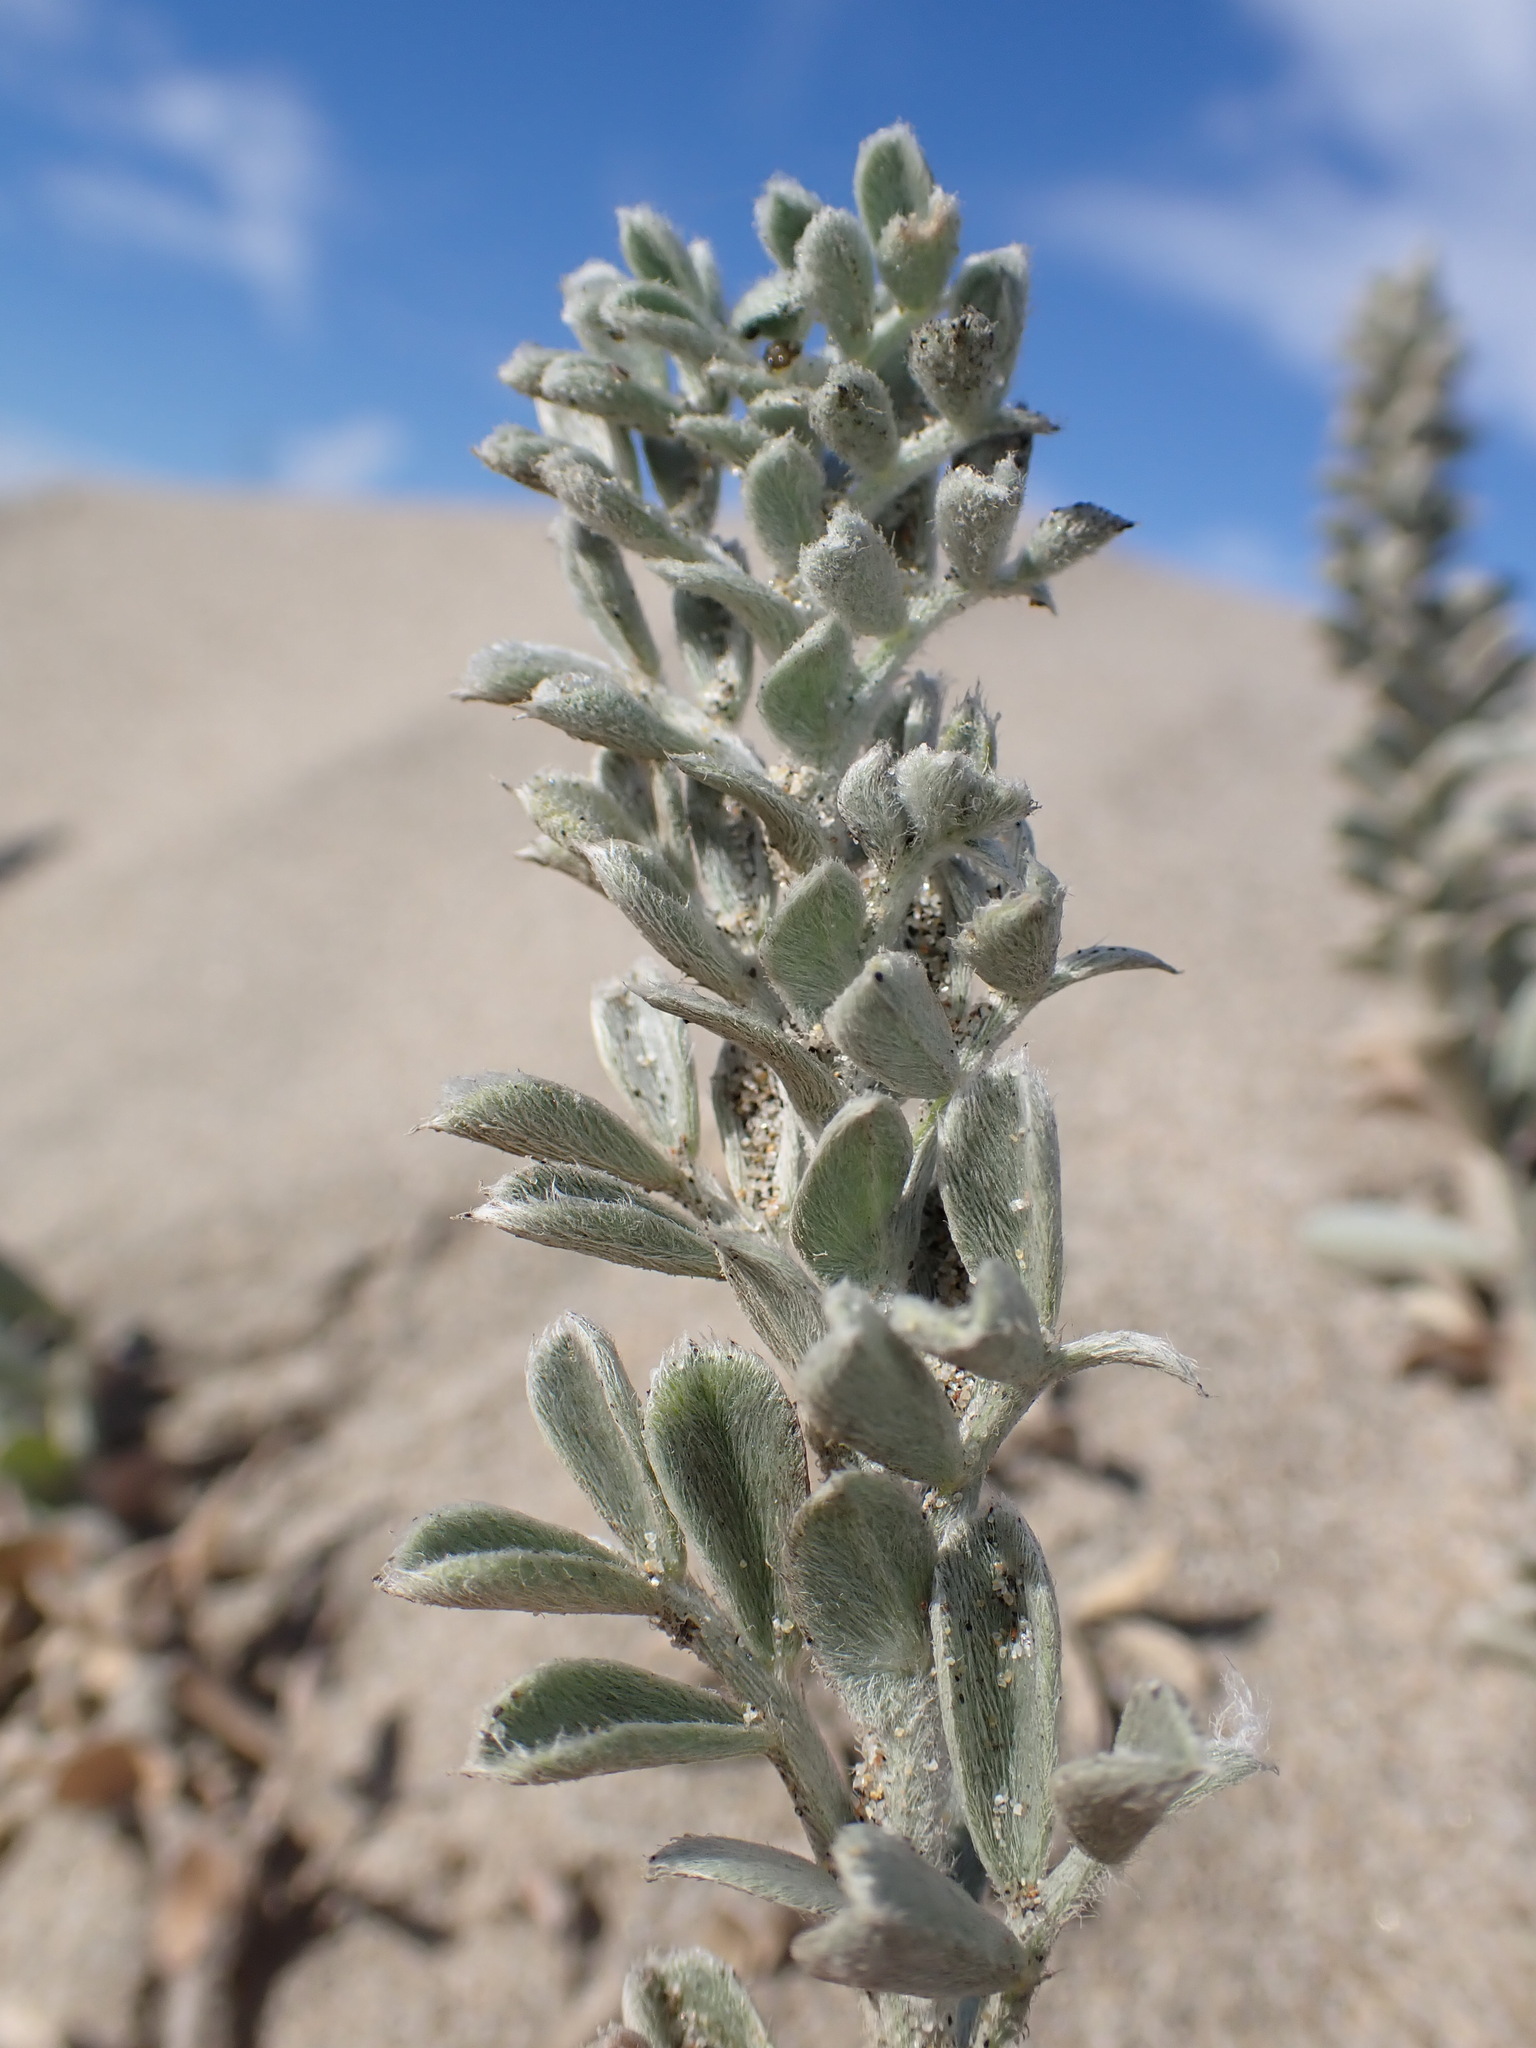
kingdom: Plantae
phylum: Tracheophyta
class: Magnoliopsida
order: Fabales
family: Fabaceae
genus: Lathyrus
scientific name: Lathyrus littoralis
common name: Dune sweet pea
